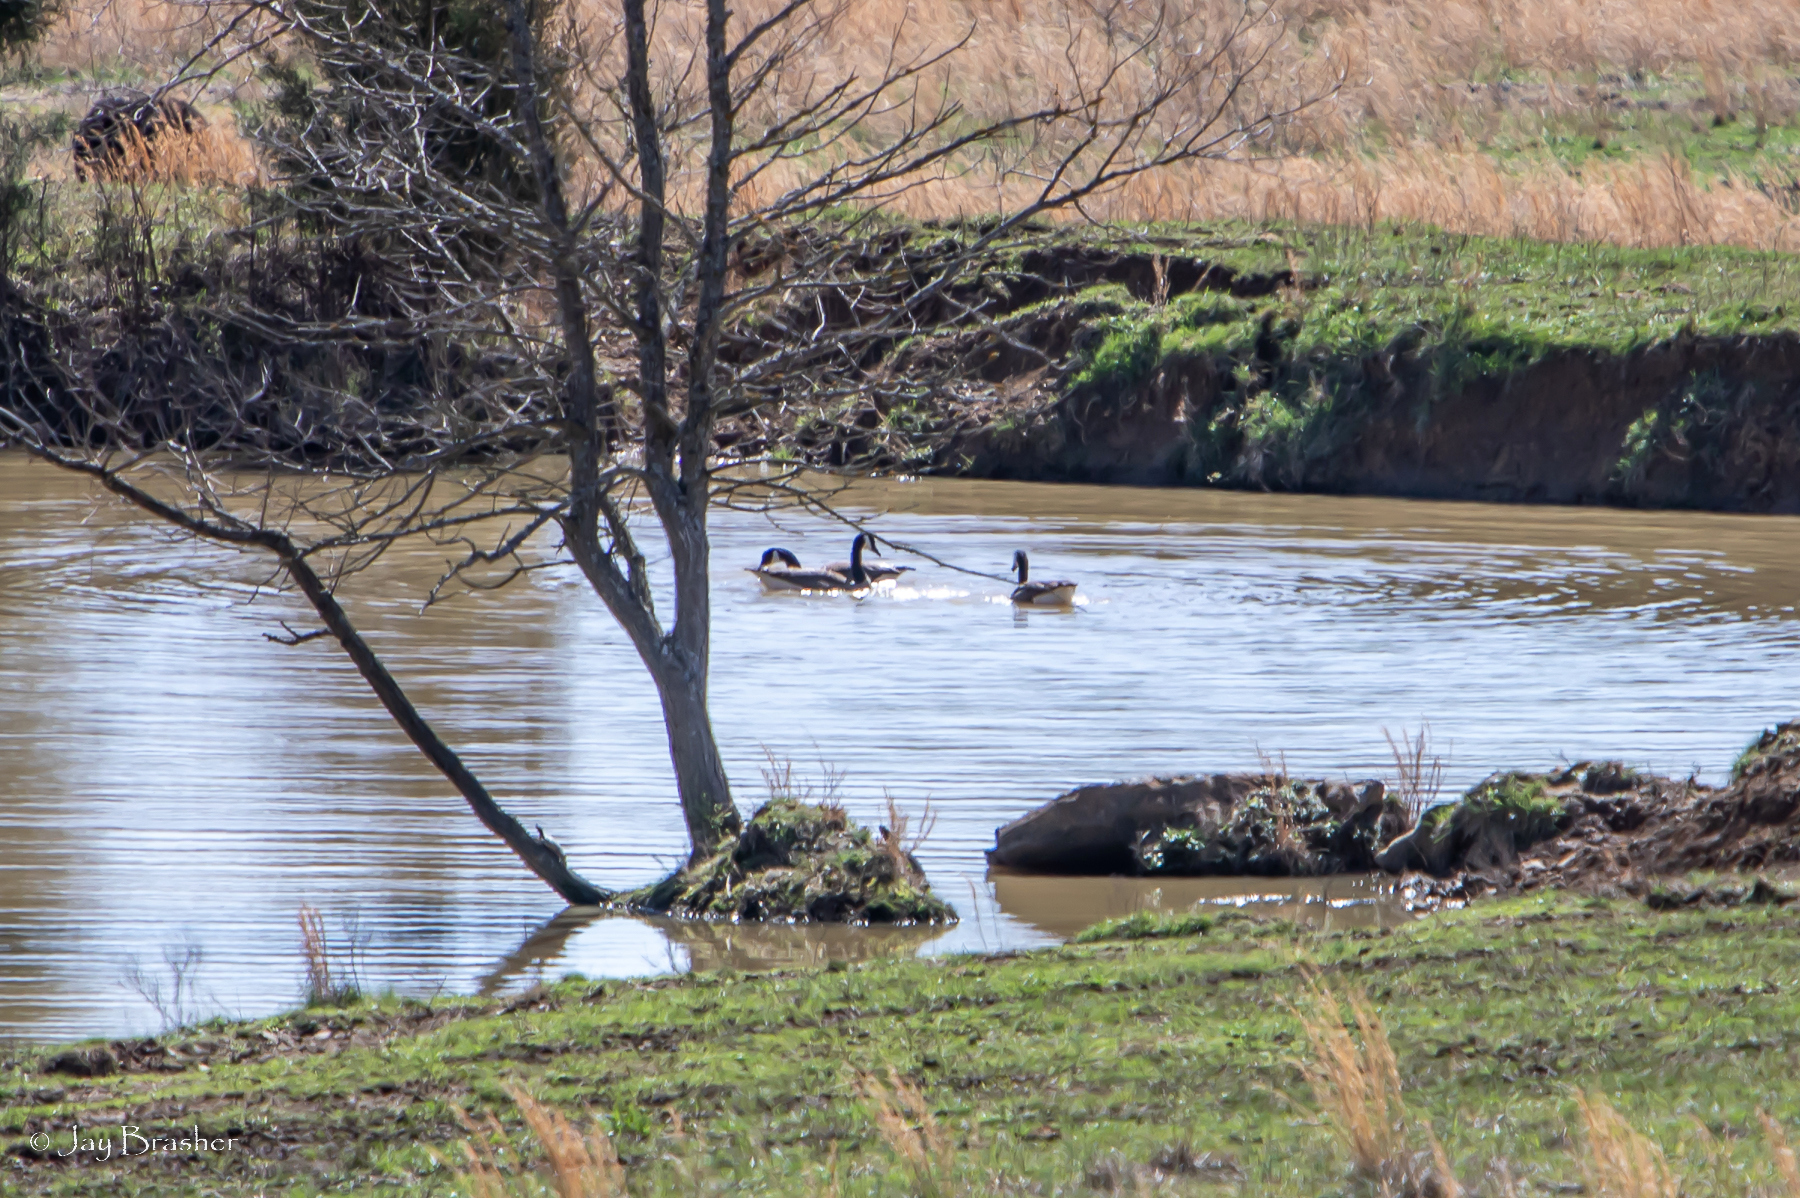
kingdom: Animalia
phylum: Chordata
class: Aves
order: Anseriformes
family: Anatidae
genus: Branta
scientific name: Branta canadensis
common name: Canada goose
